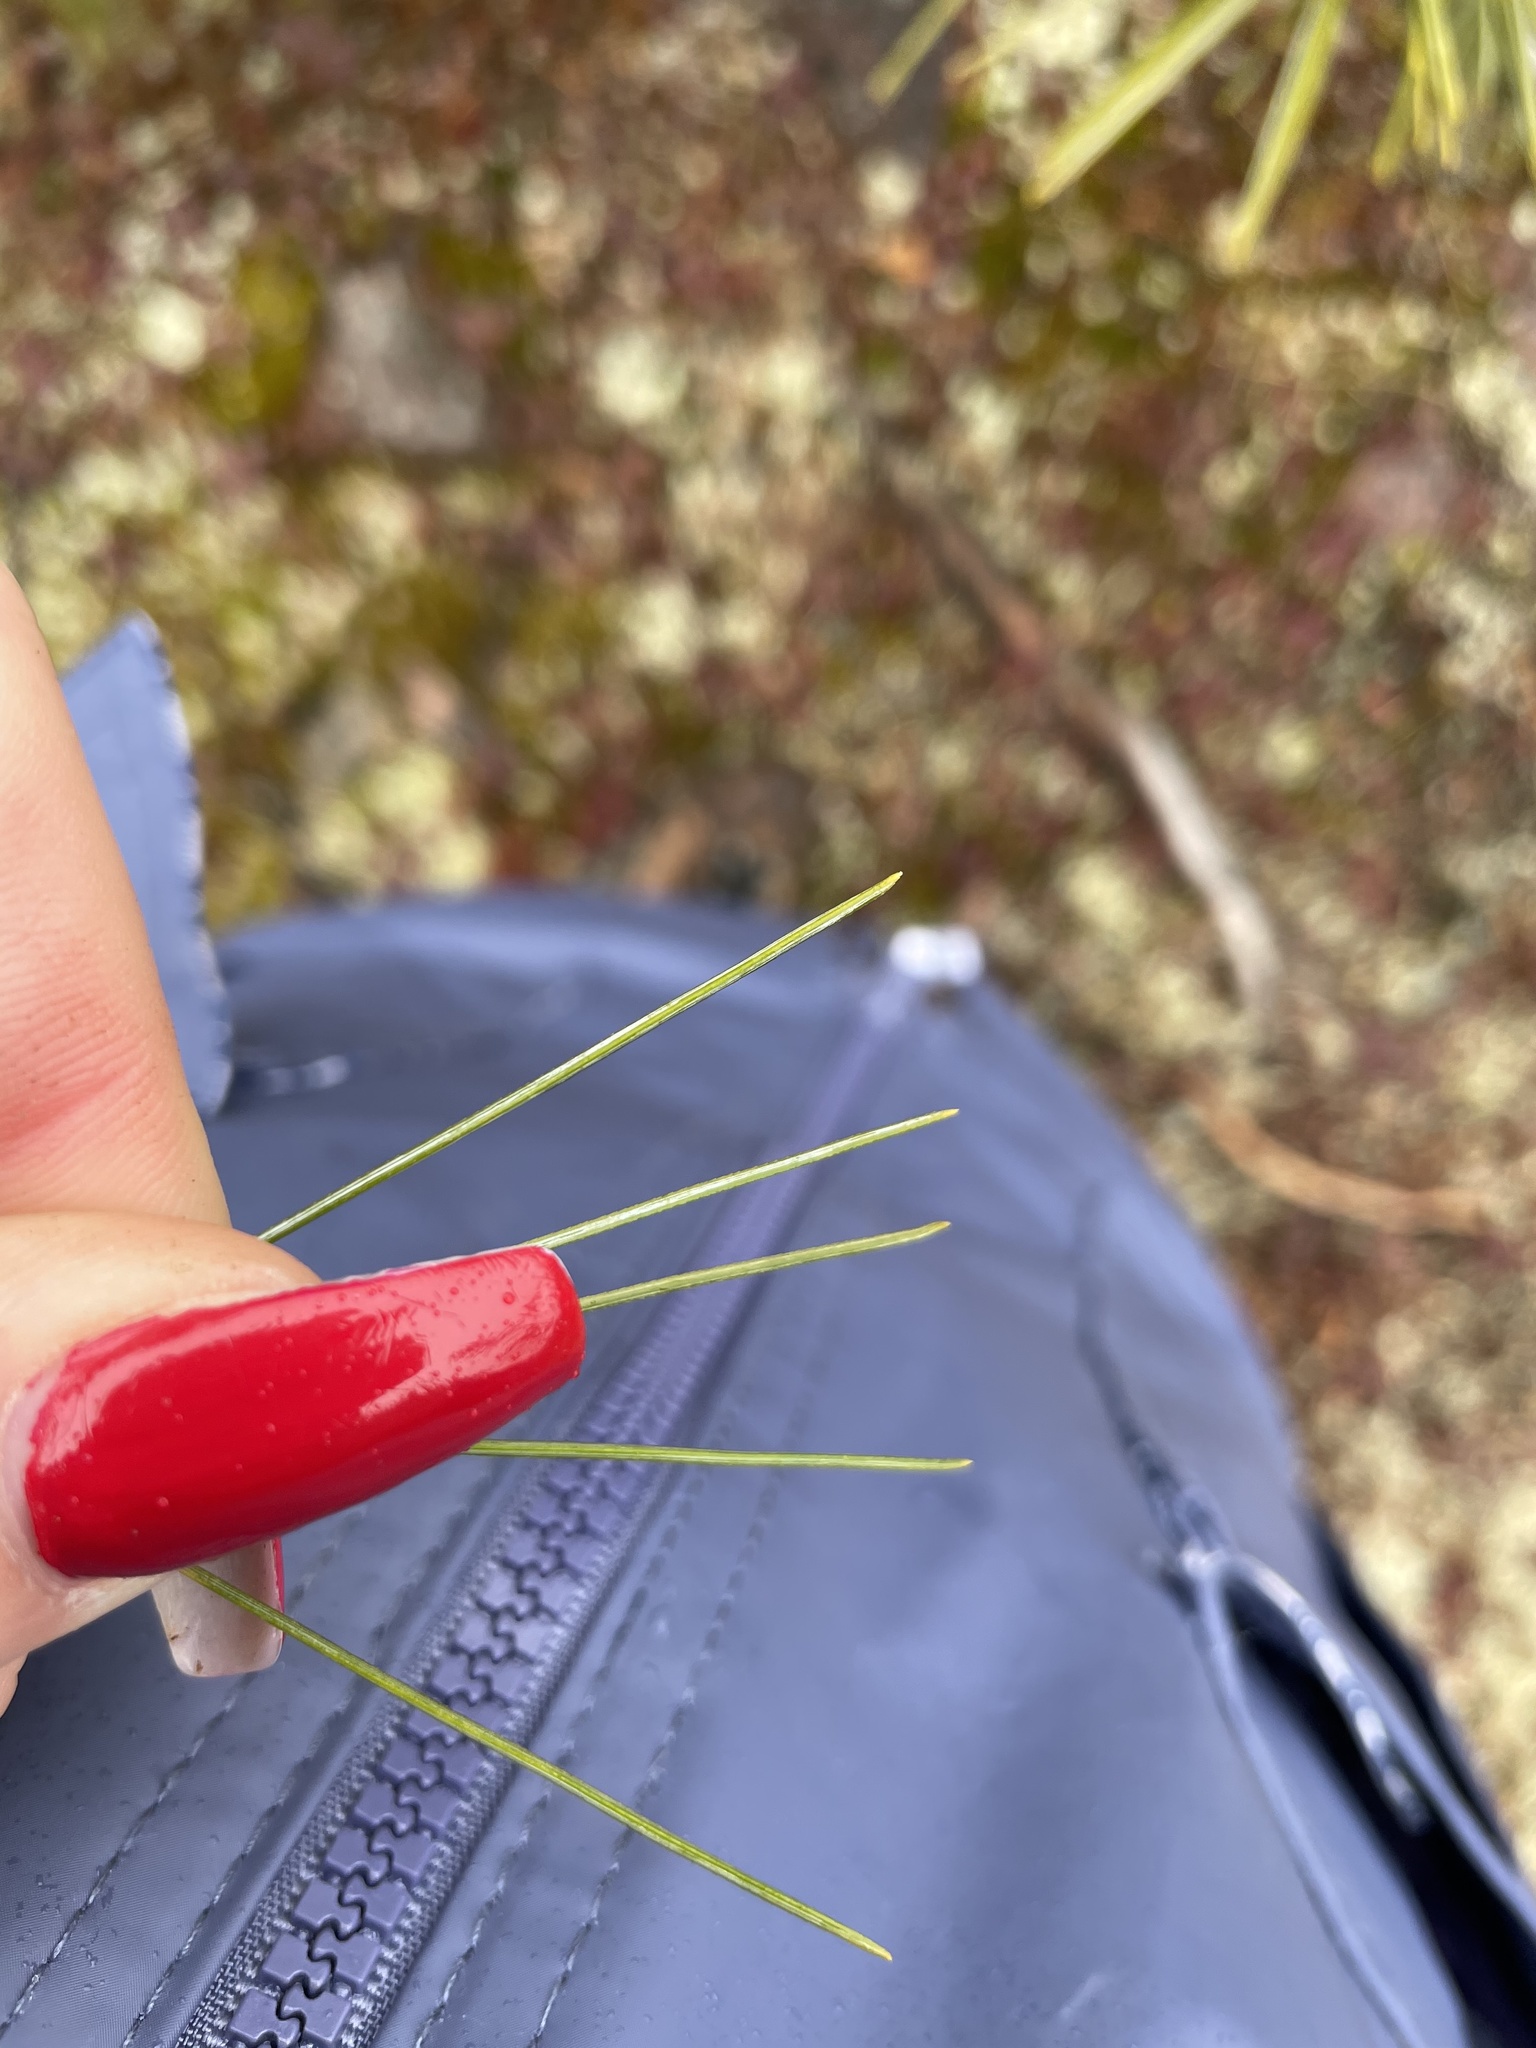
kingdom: Plantae
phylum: Tracheophyta
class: Pinopsida
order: Pinales
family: Pinaceae
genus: Pinus
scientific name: Pinus strobus
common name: Weymouth pine
